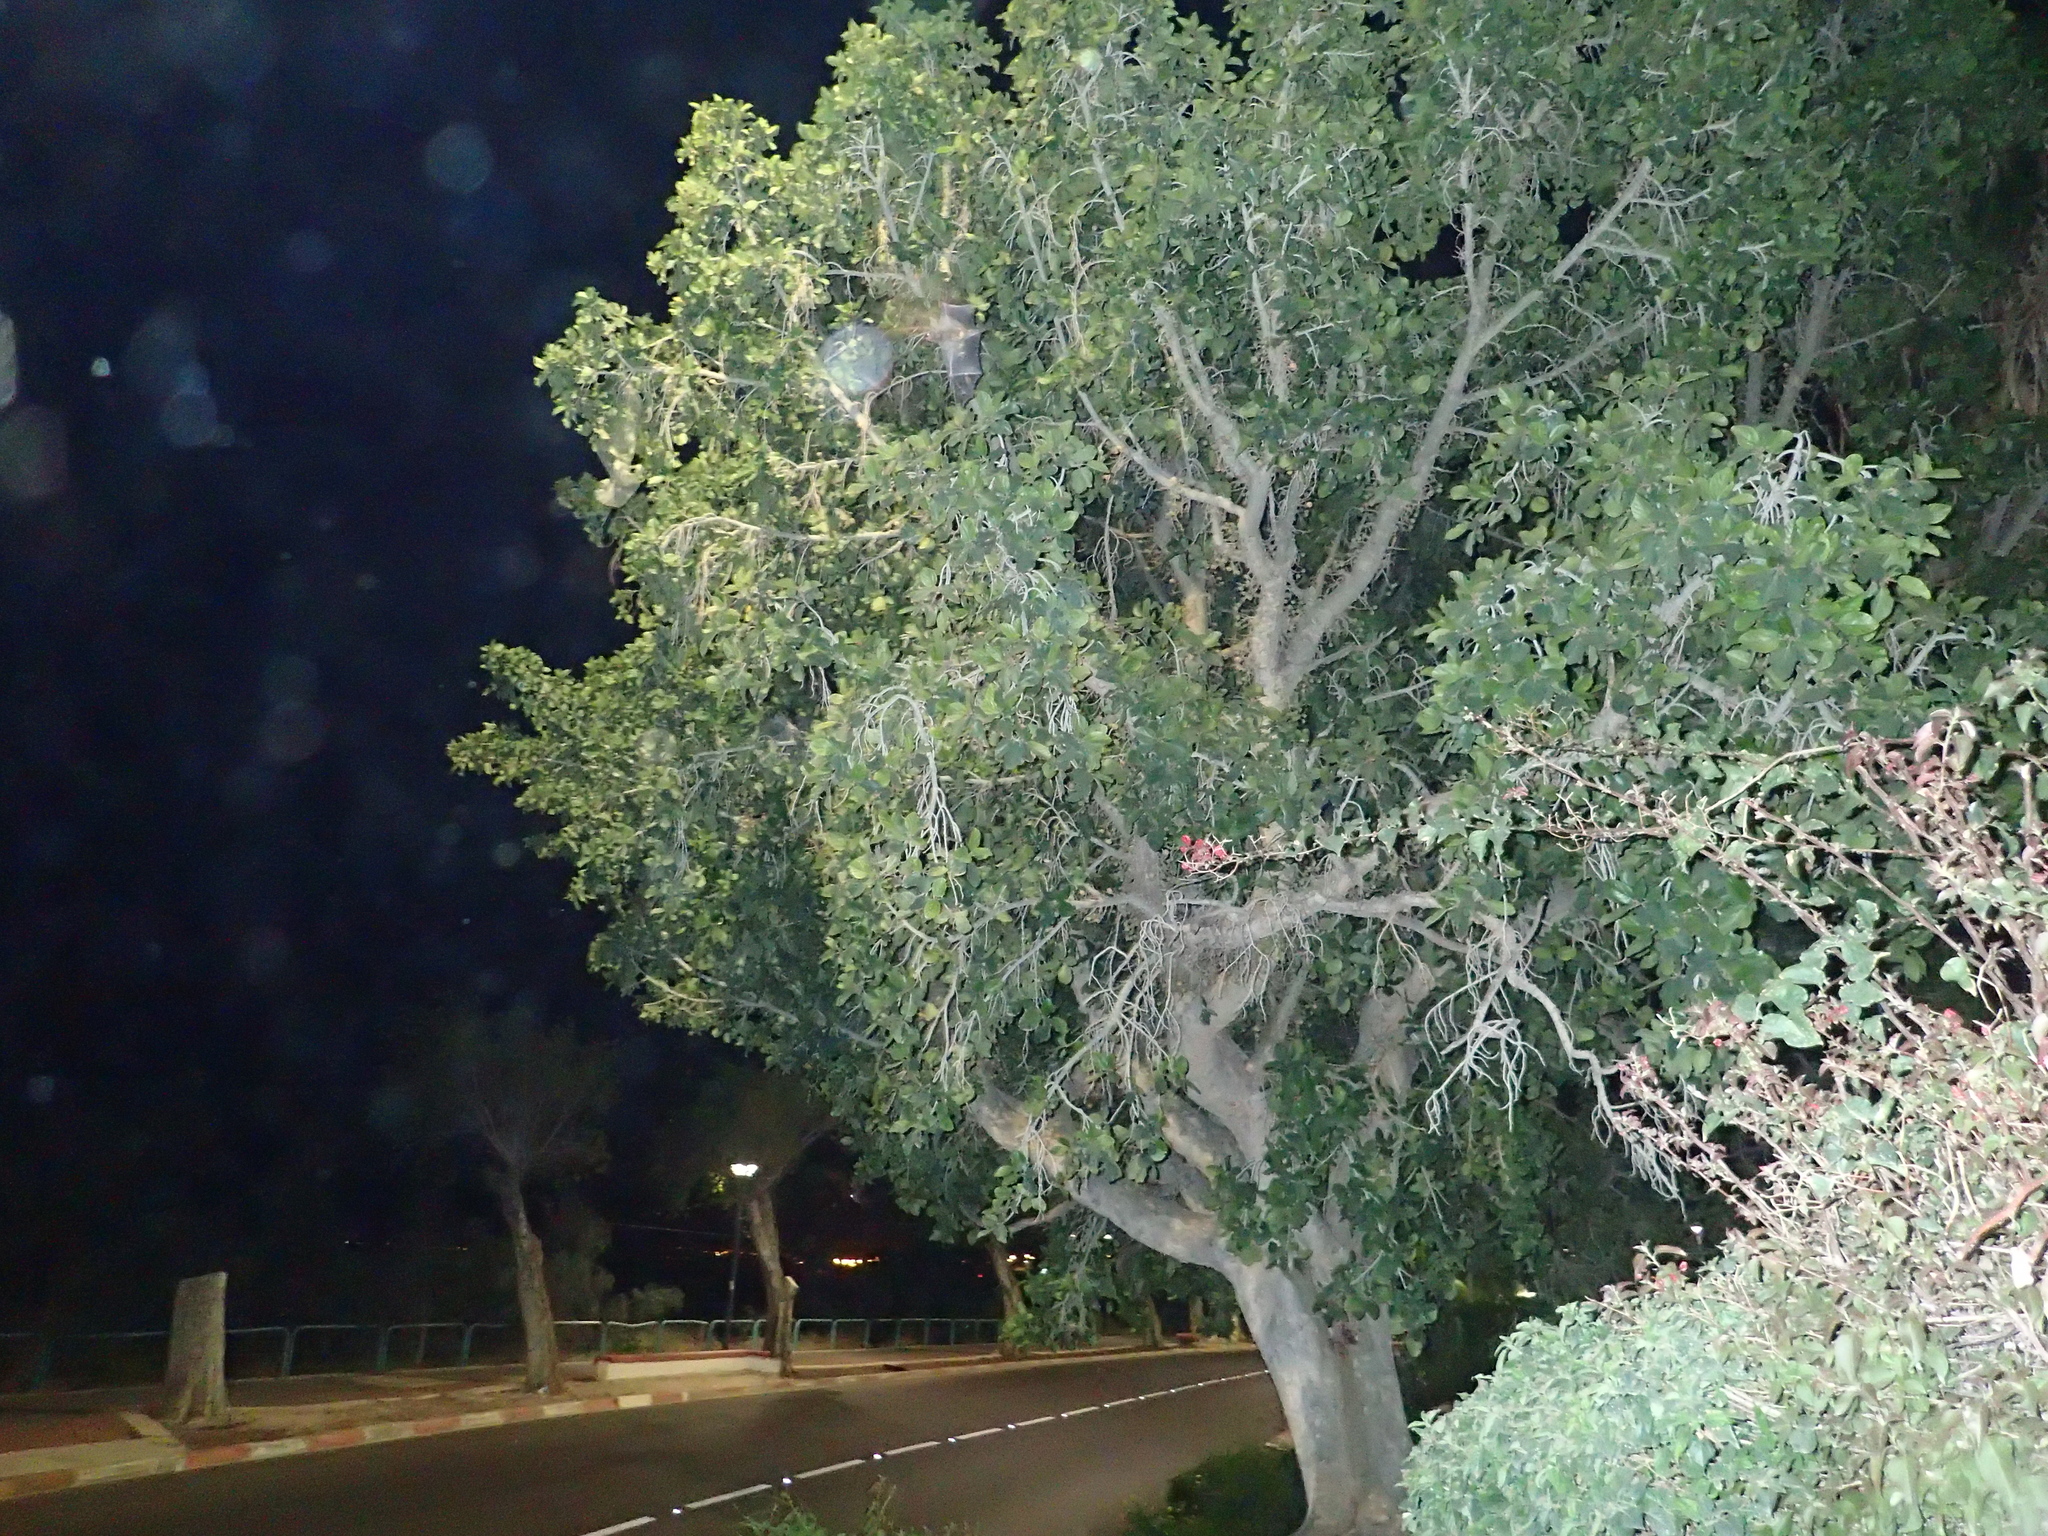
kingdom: Animalia
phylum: Chordata
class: Mammalia
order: Chiroptera
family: Pteropodidae
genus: Rousettus
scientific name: Rousettus aegyptiacus
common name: Egyptian rousette
